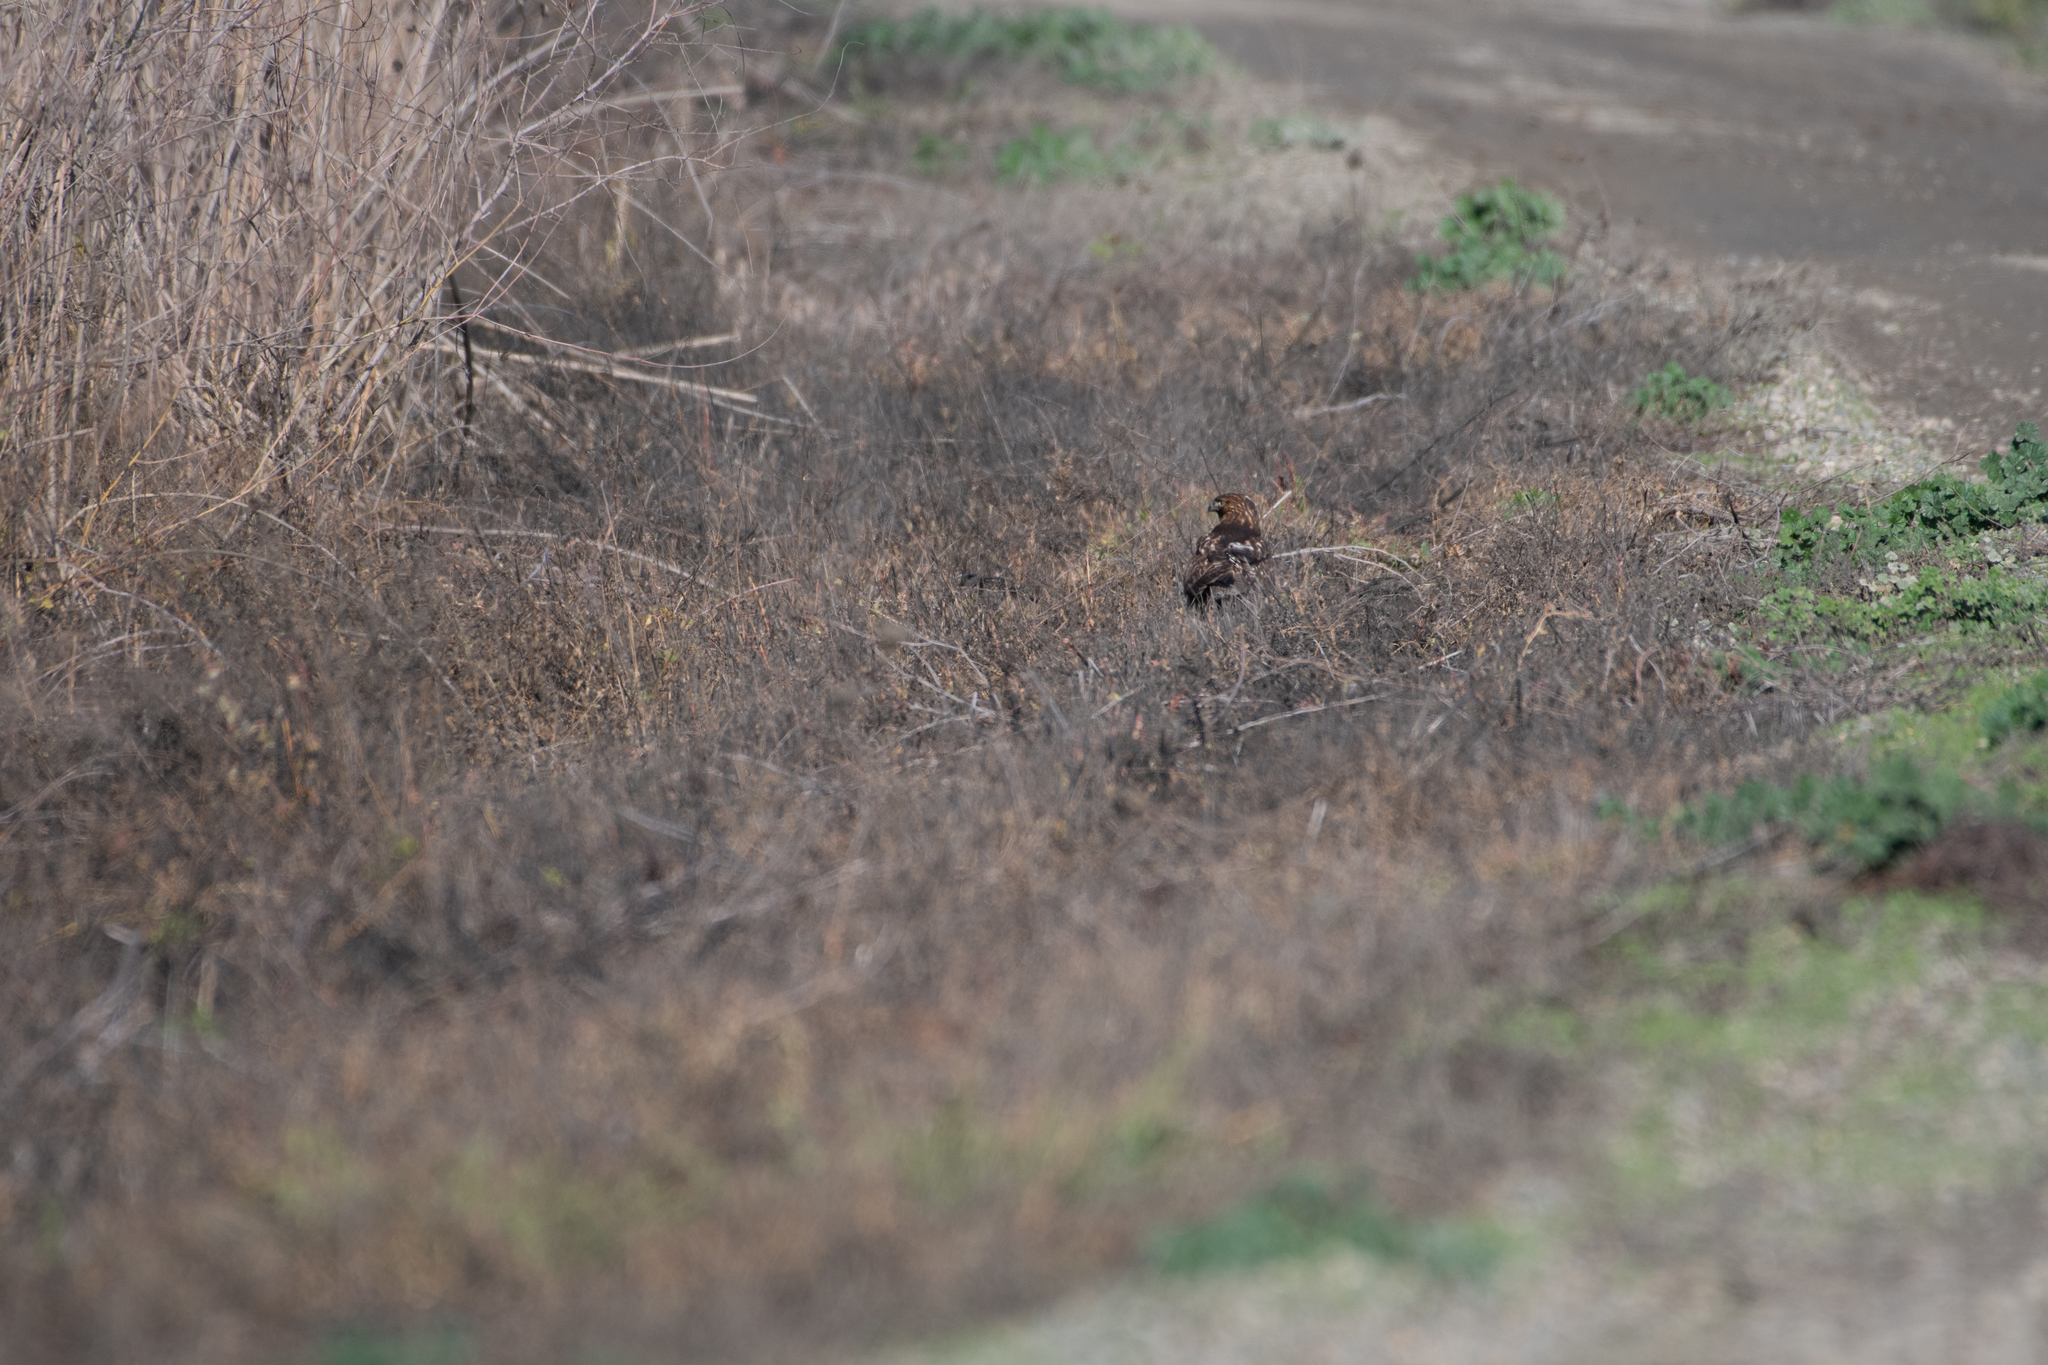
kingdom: Animalia
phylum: Chordata
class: Aves
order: Accipitriformes
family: Accipitridae
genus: Buteo
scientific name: Buteo jamaicensis
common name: Red-tailed hawk
